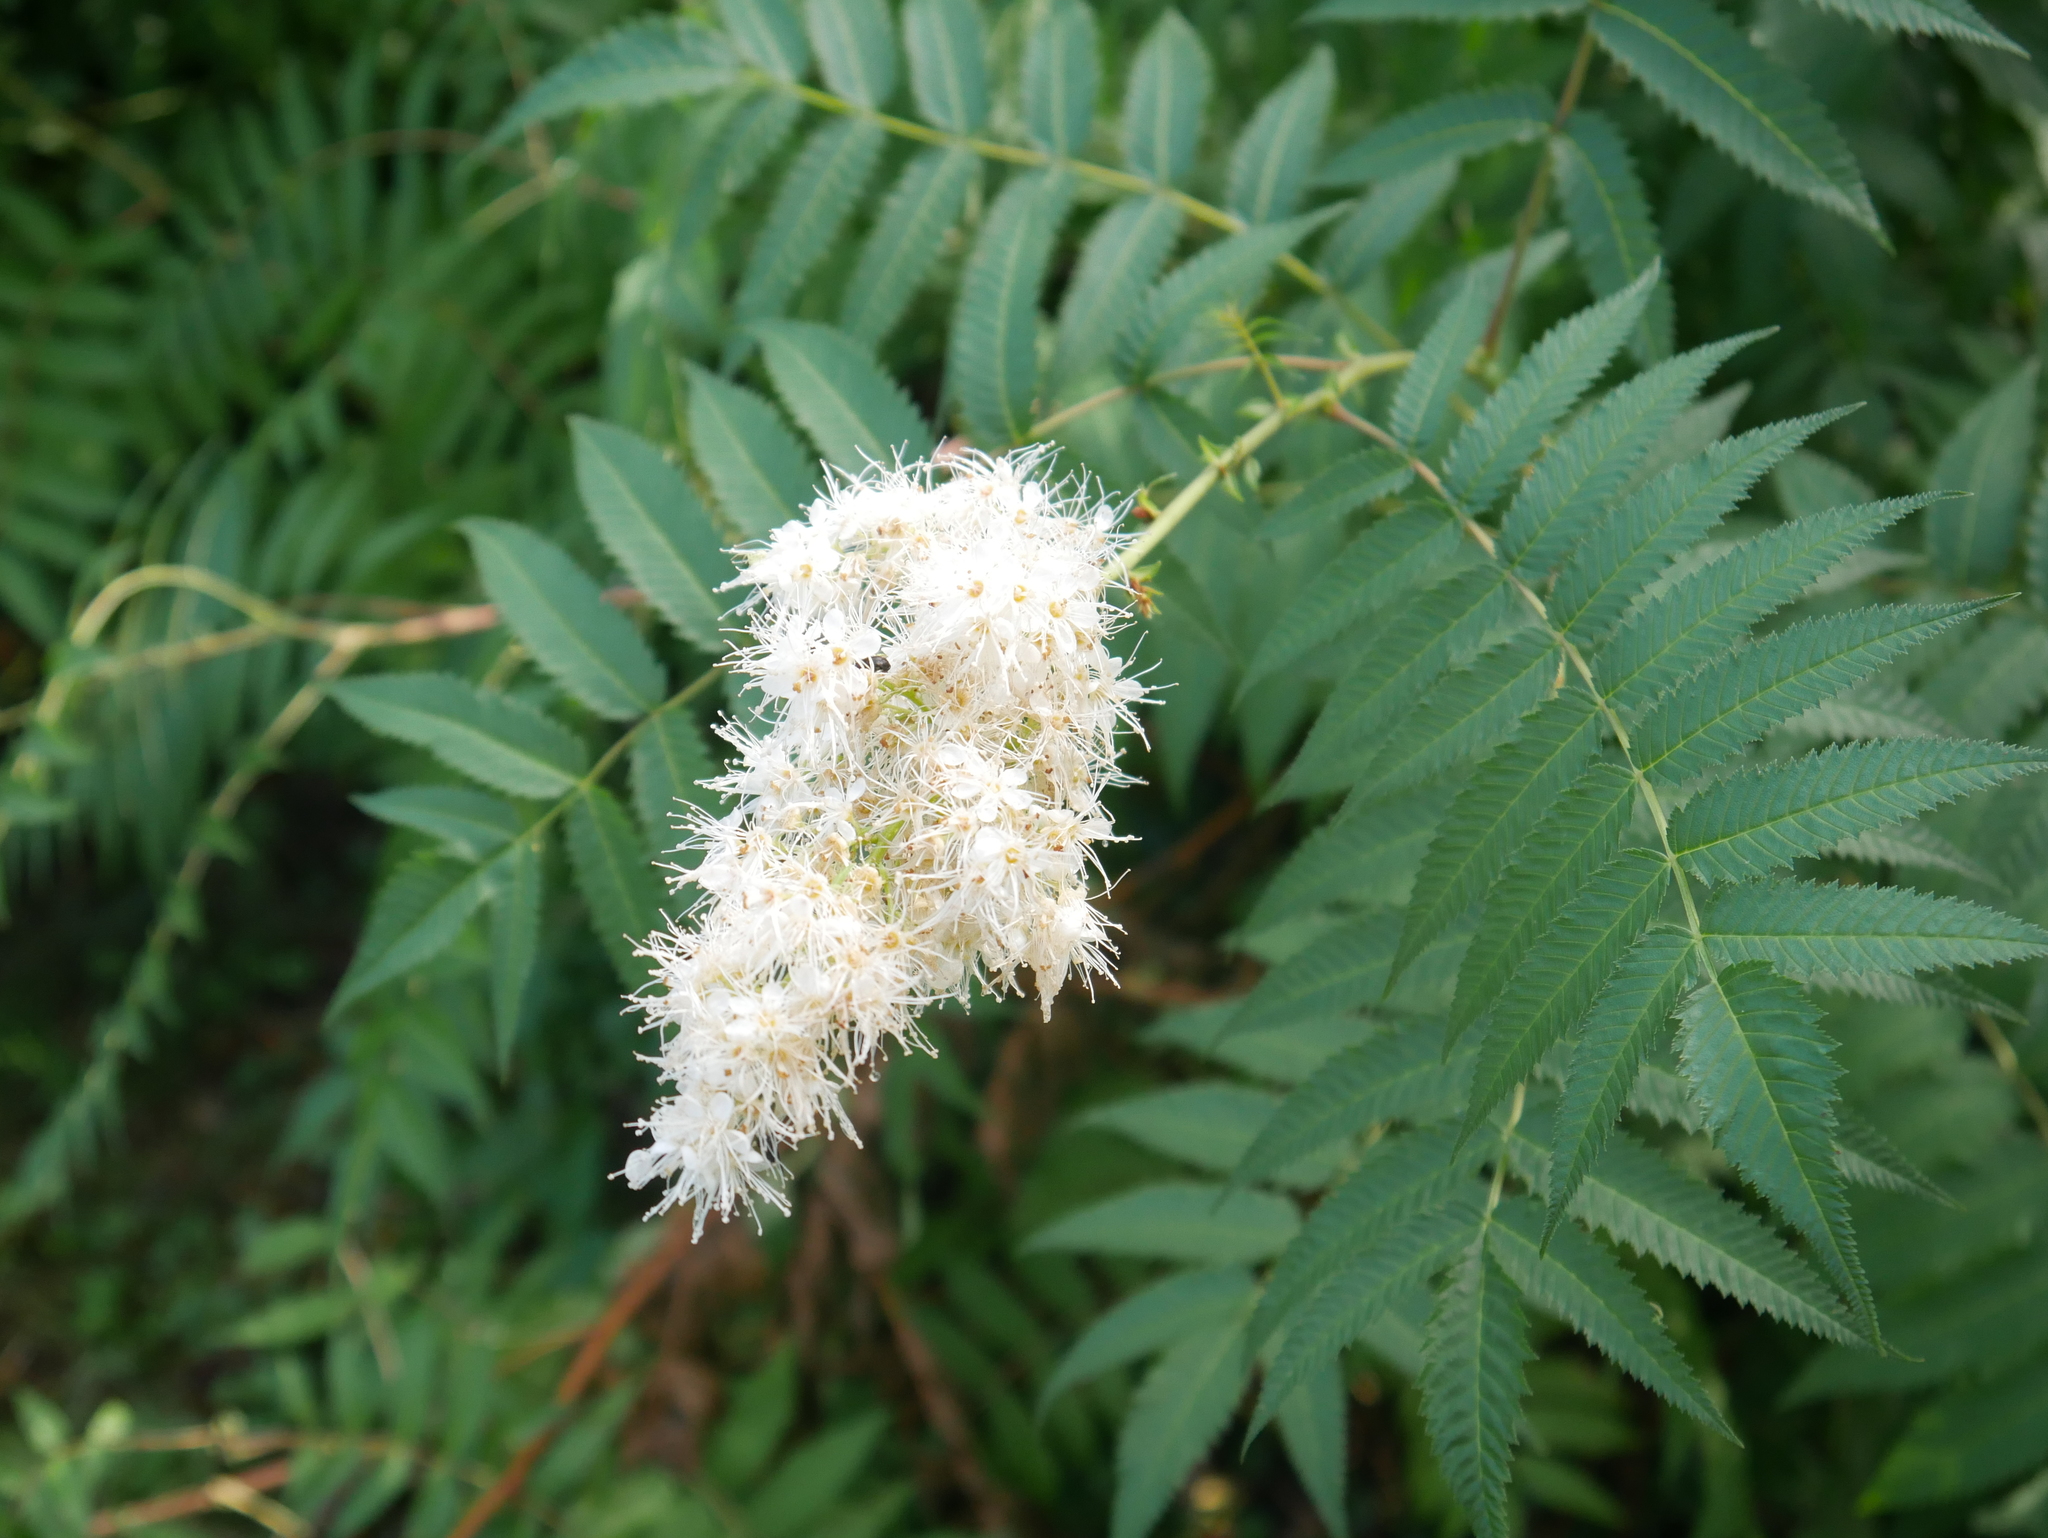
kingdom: Plantae
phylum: Tracheophyta
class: Magnoliopsida
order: Rosales
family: Rosaceae
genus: Sorbaria
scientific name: Sorbaria sorbifolia
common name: False spiraea
